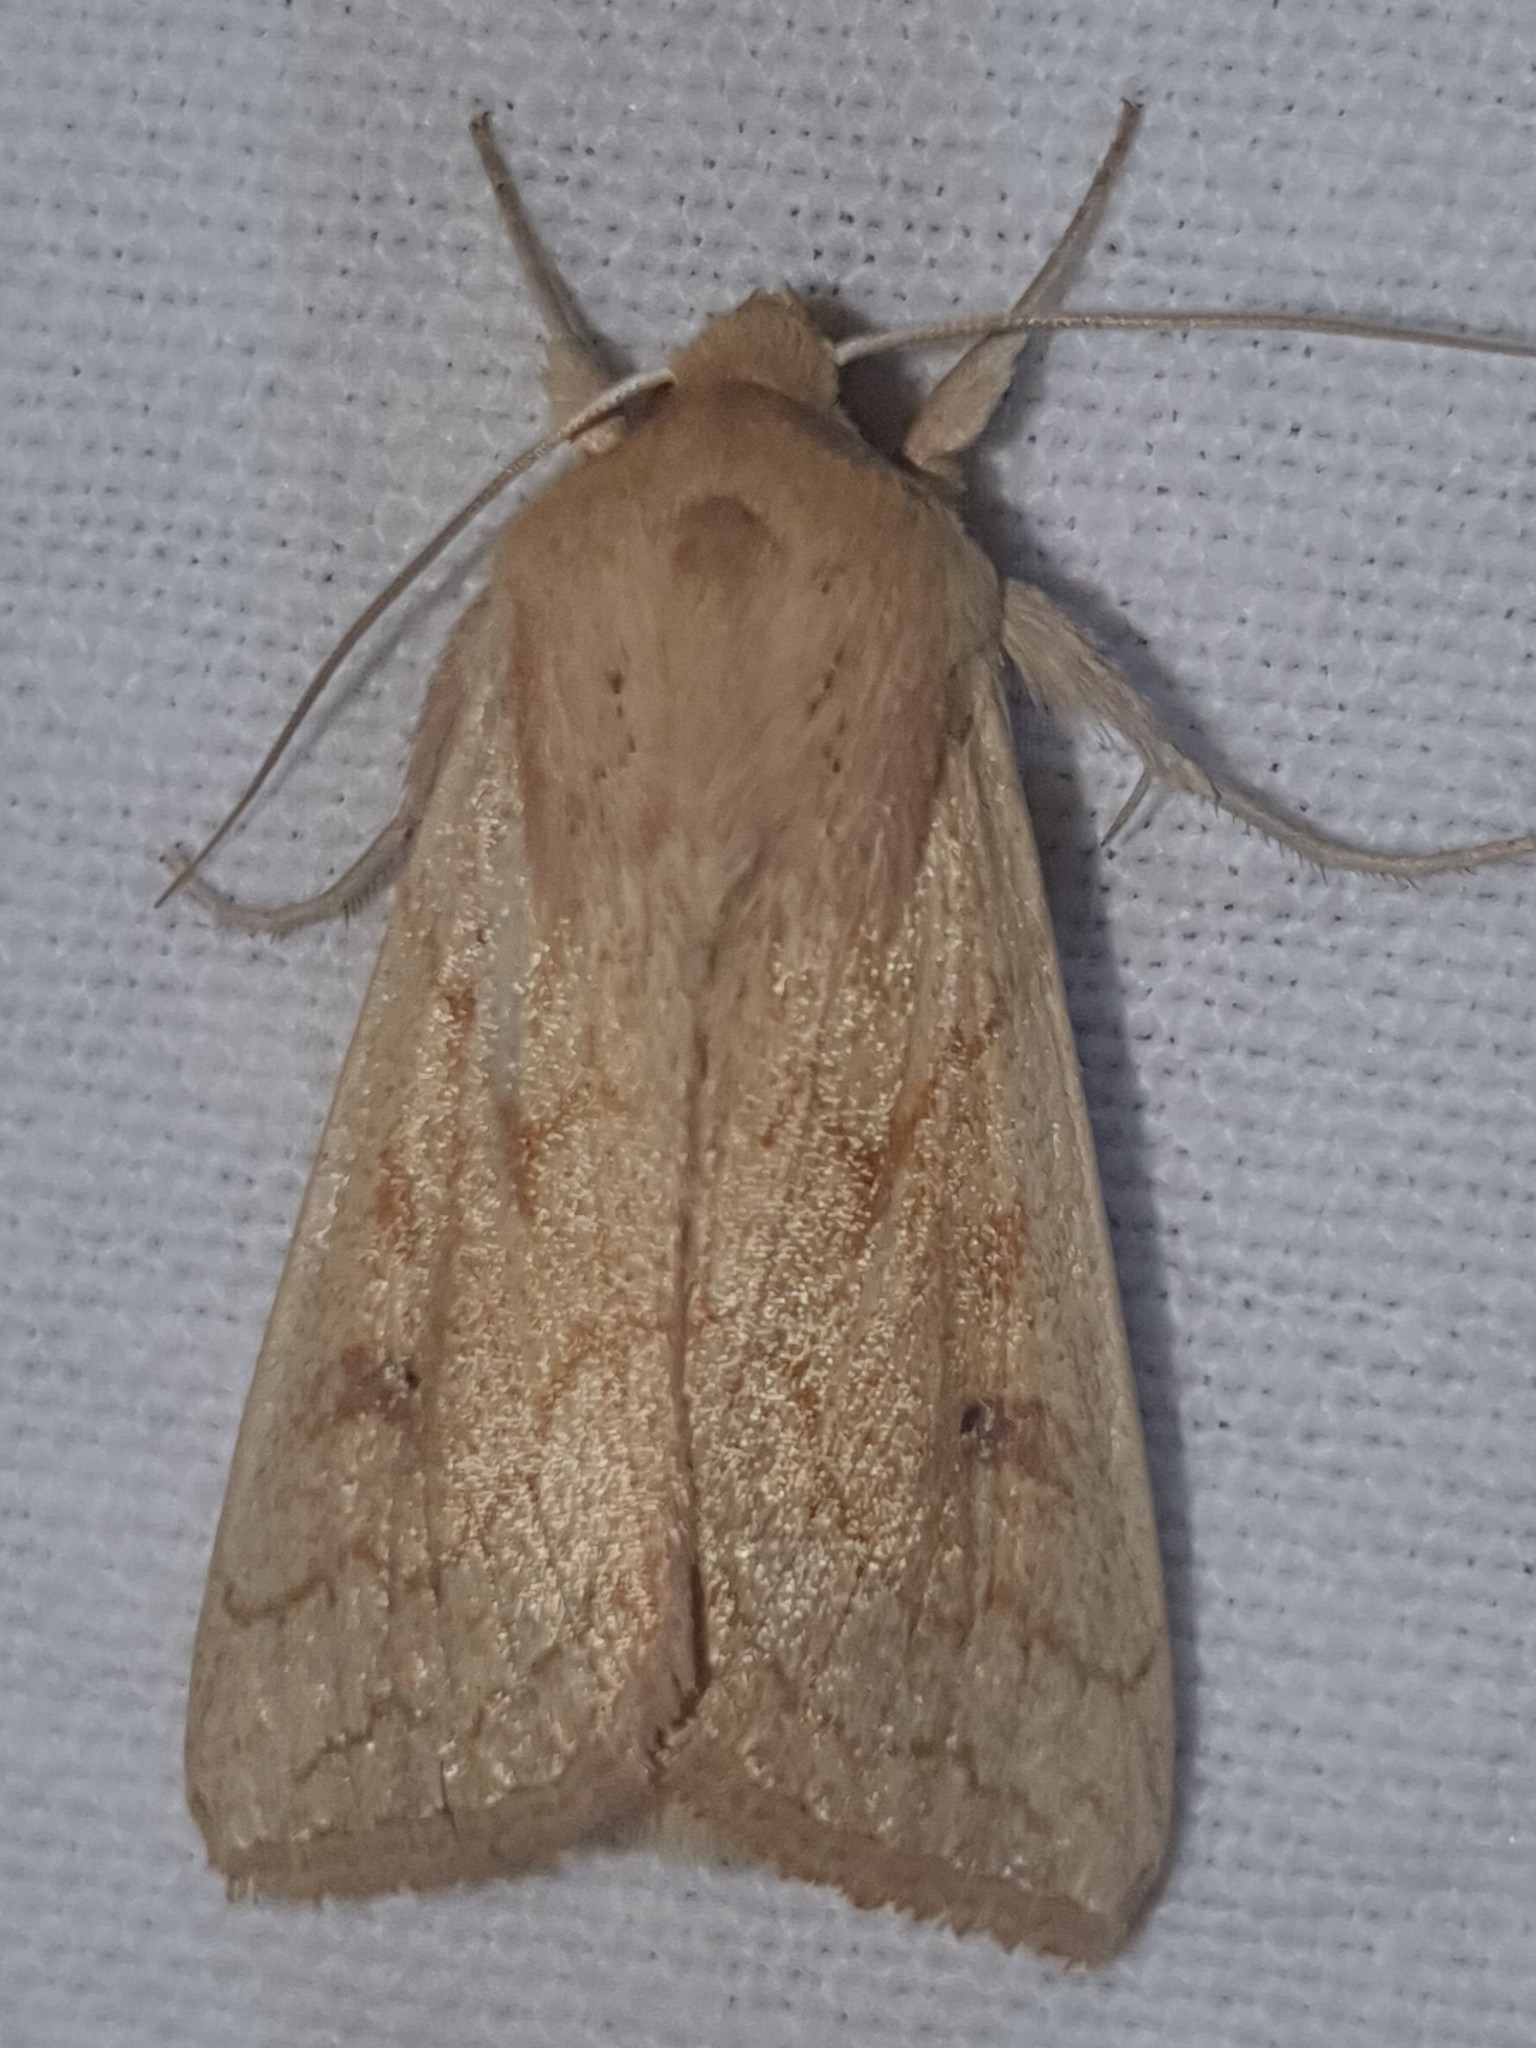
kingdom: Animalia
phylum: Arthropoda
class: Insecta
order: Lepidoptera
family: Noctuidae
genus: Mythimna
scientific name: Mythimna vitellina
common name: Delicate
